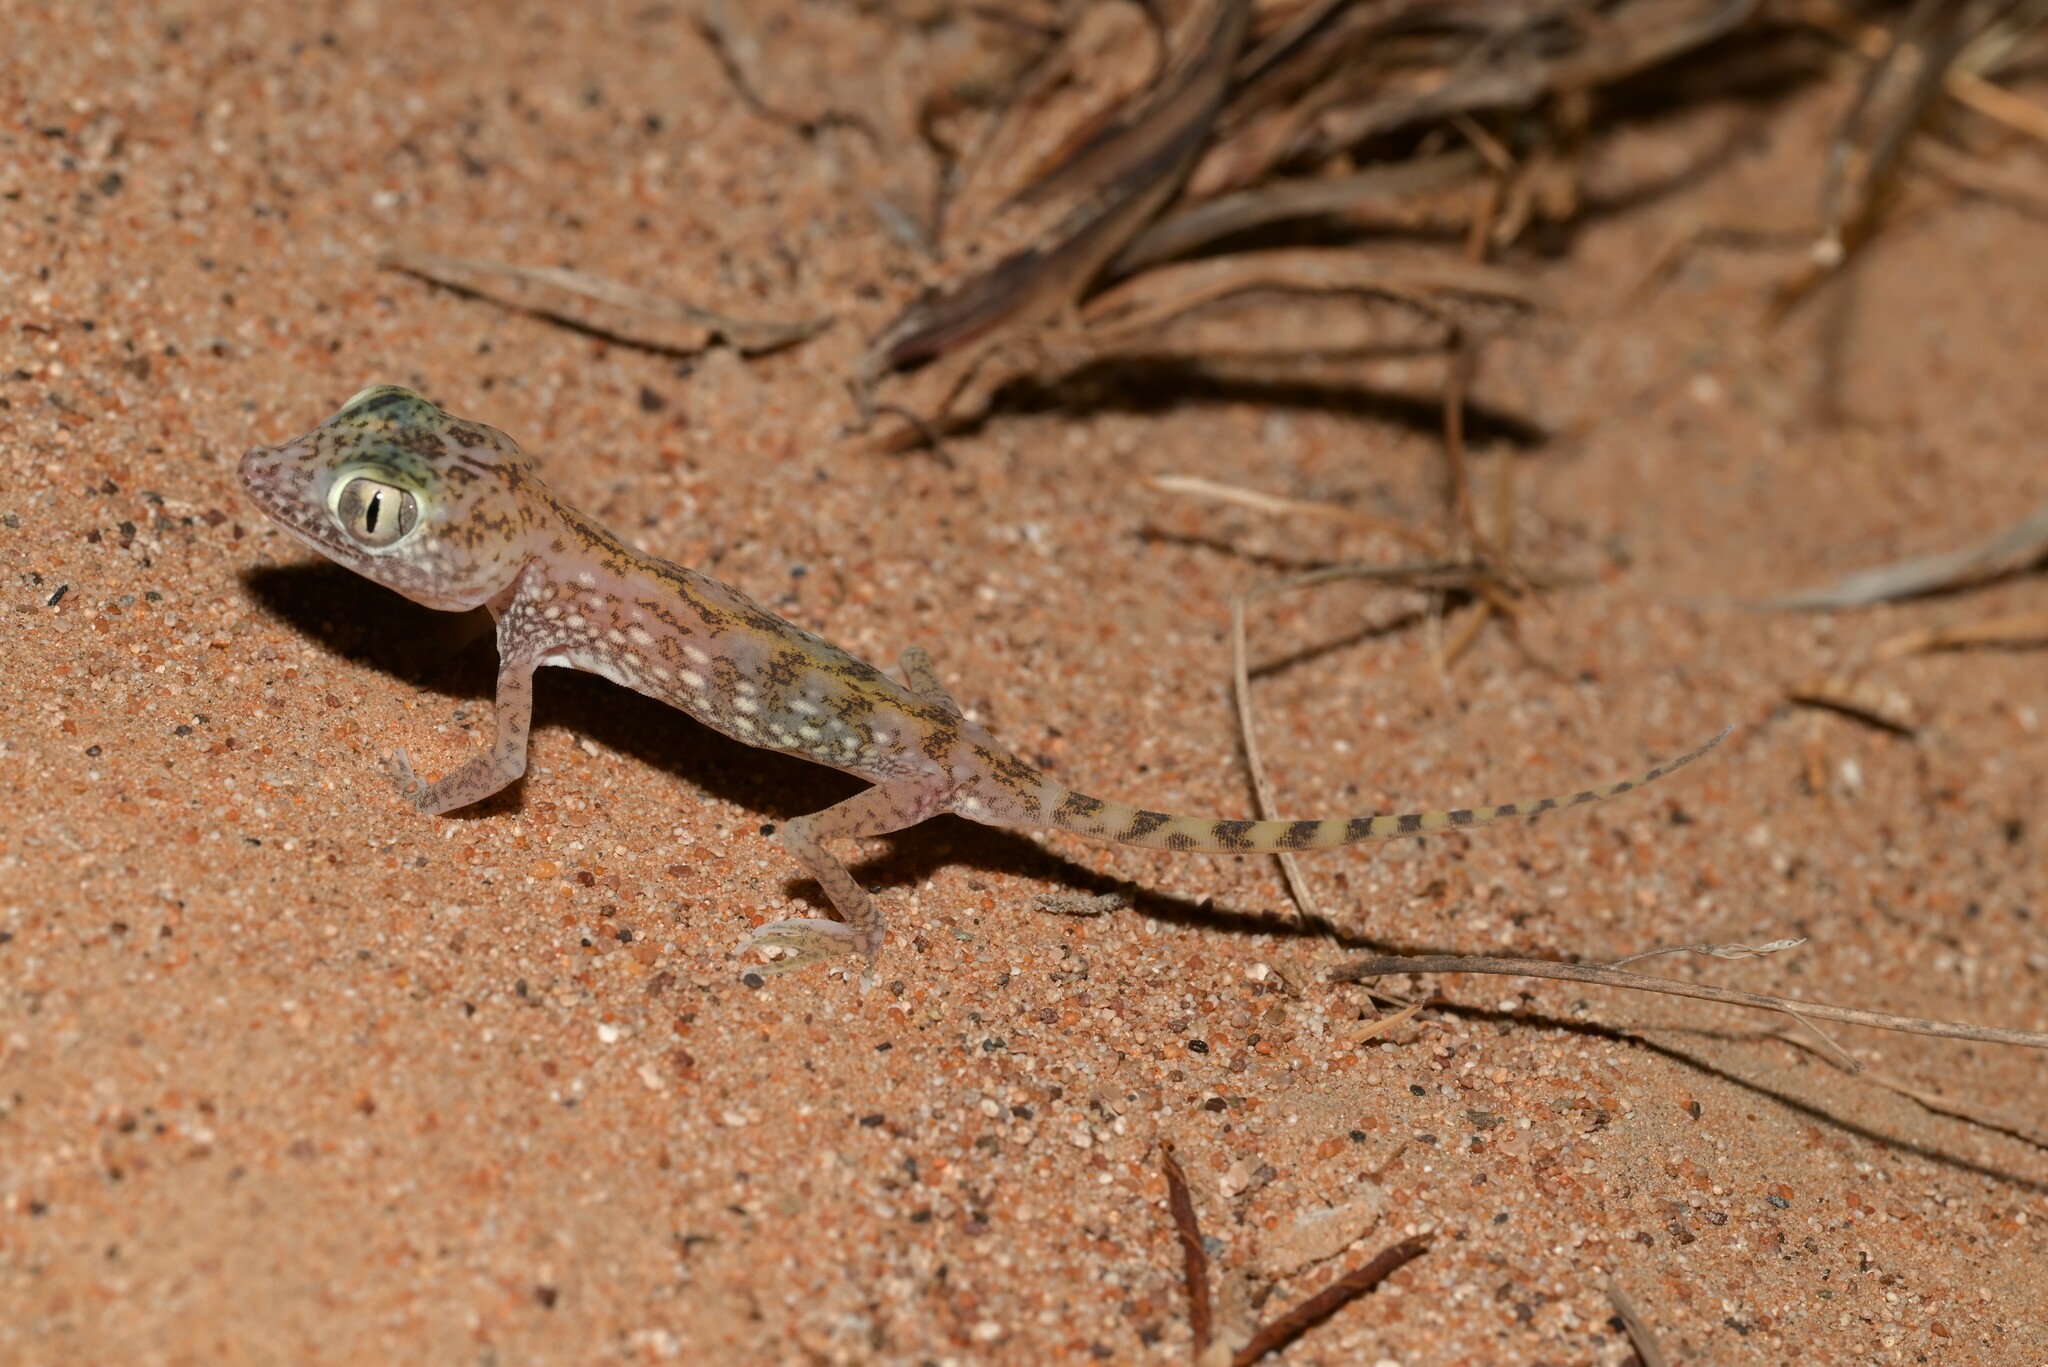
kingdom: Animalia
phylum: Chordata
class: Squamata
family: Gekkonidae
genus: Stenodactylus
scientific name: Stenodactylus doriae
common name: Dune sand gecko
